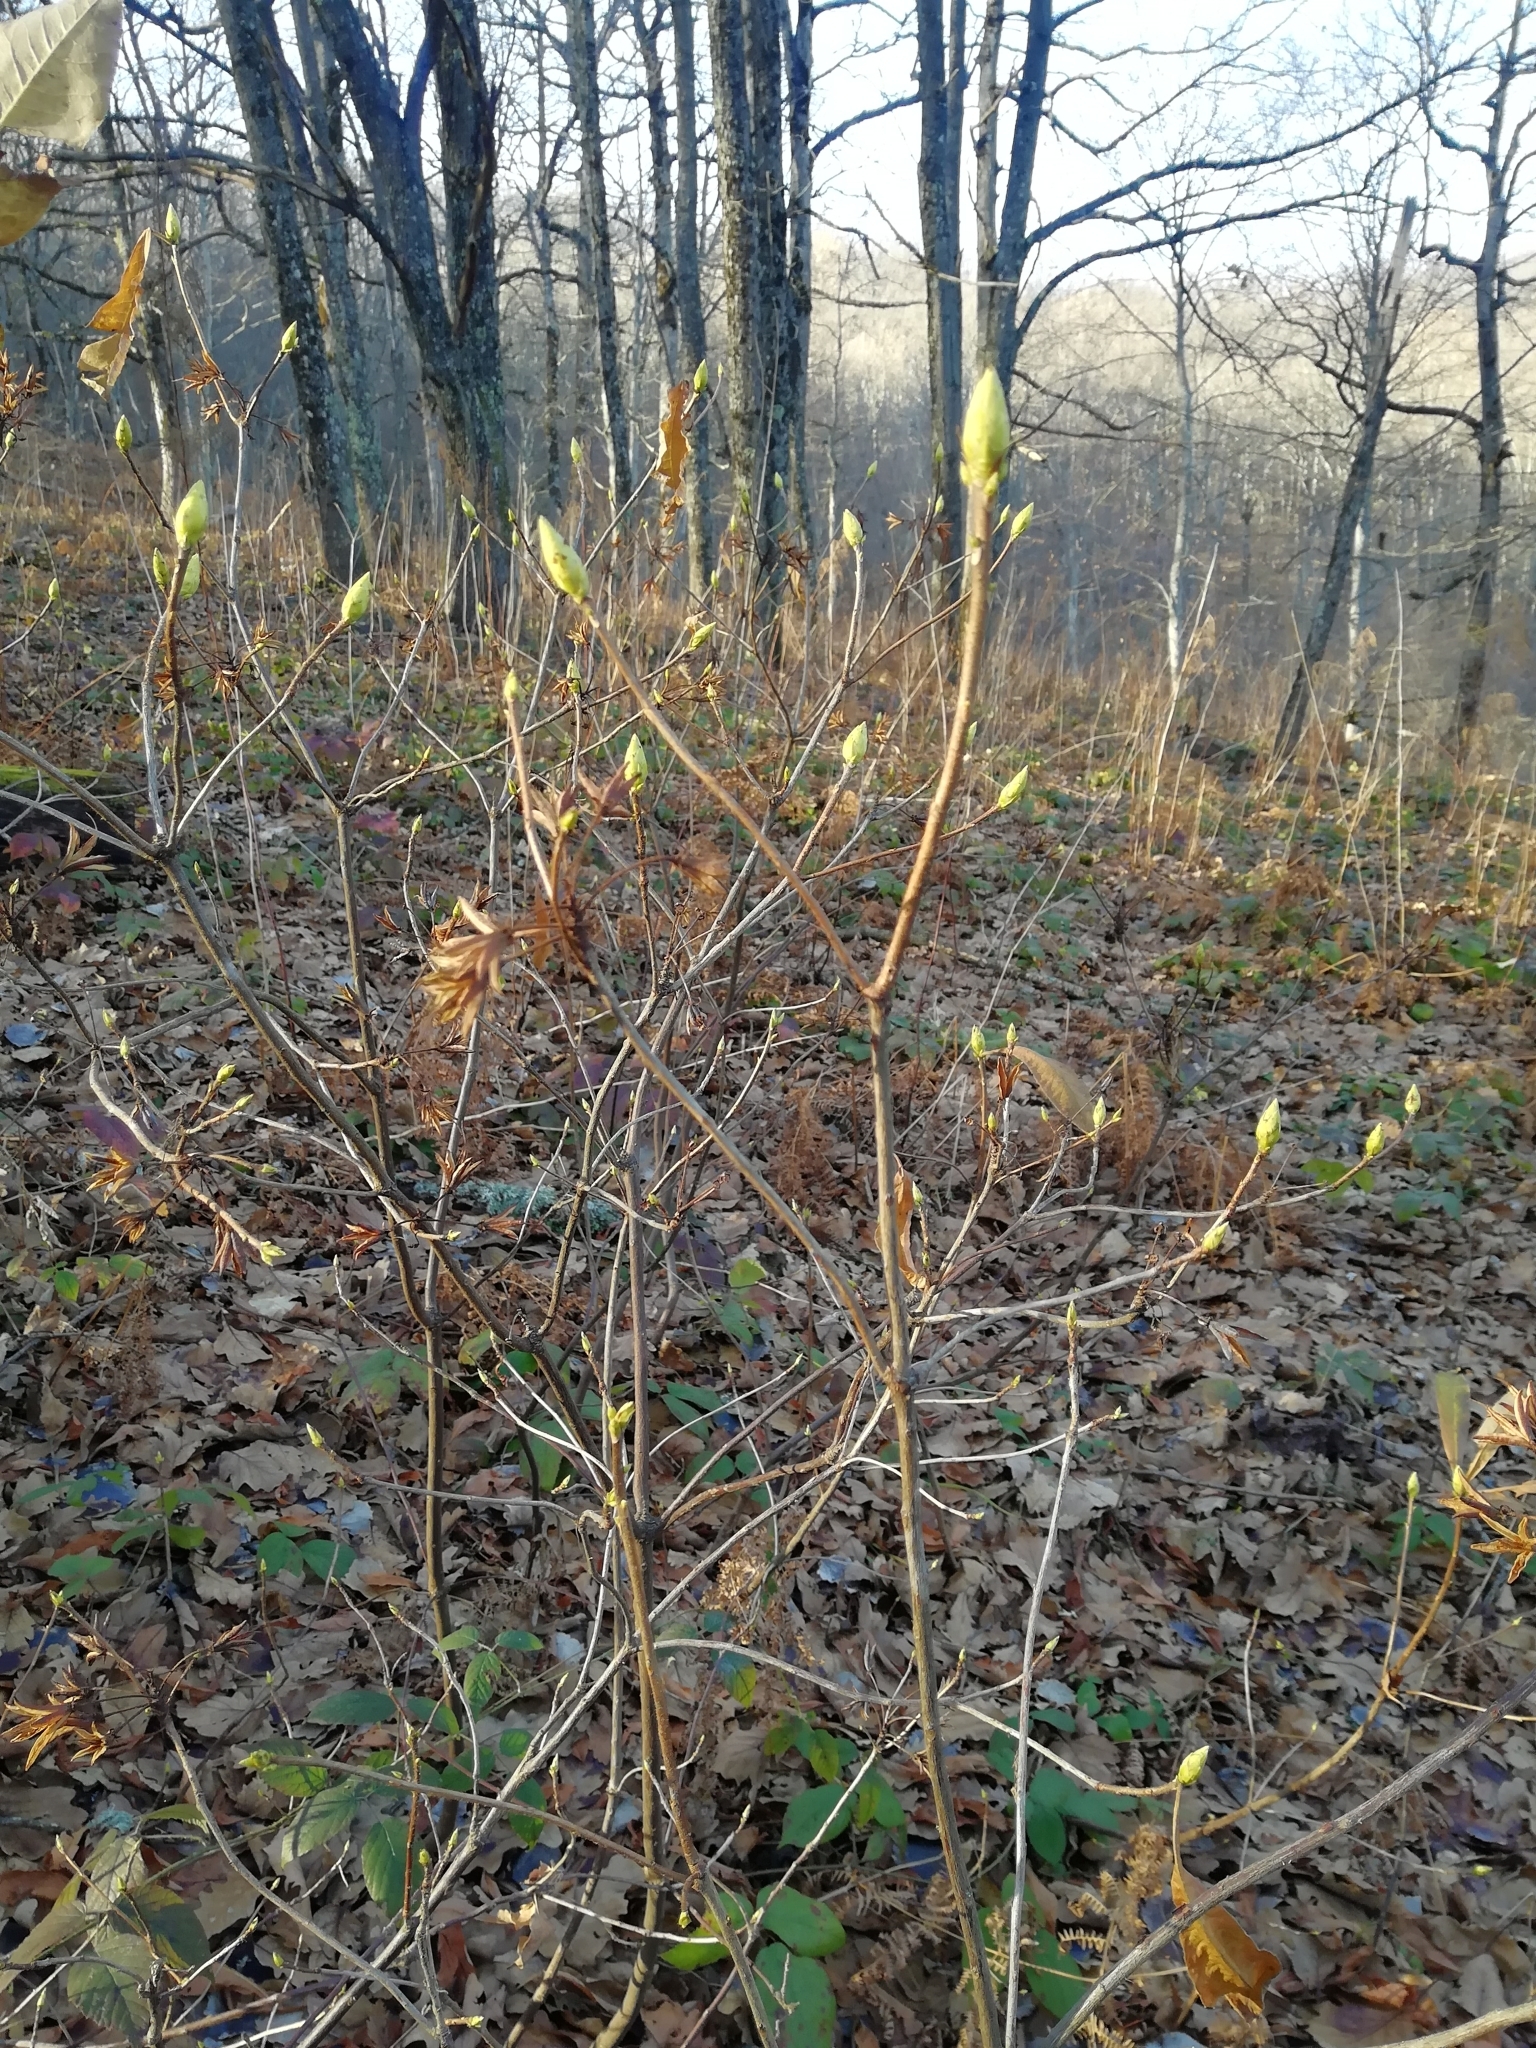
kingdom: Plantae
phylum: Tracheophyta
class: Magnoliopsida
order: Ericales
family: Ericaceae
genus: Rhododendron
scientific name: Rhododendron luteum
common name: Yellow azalea
